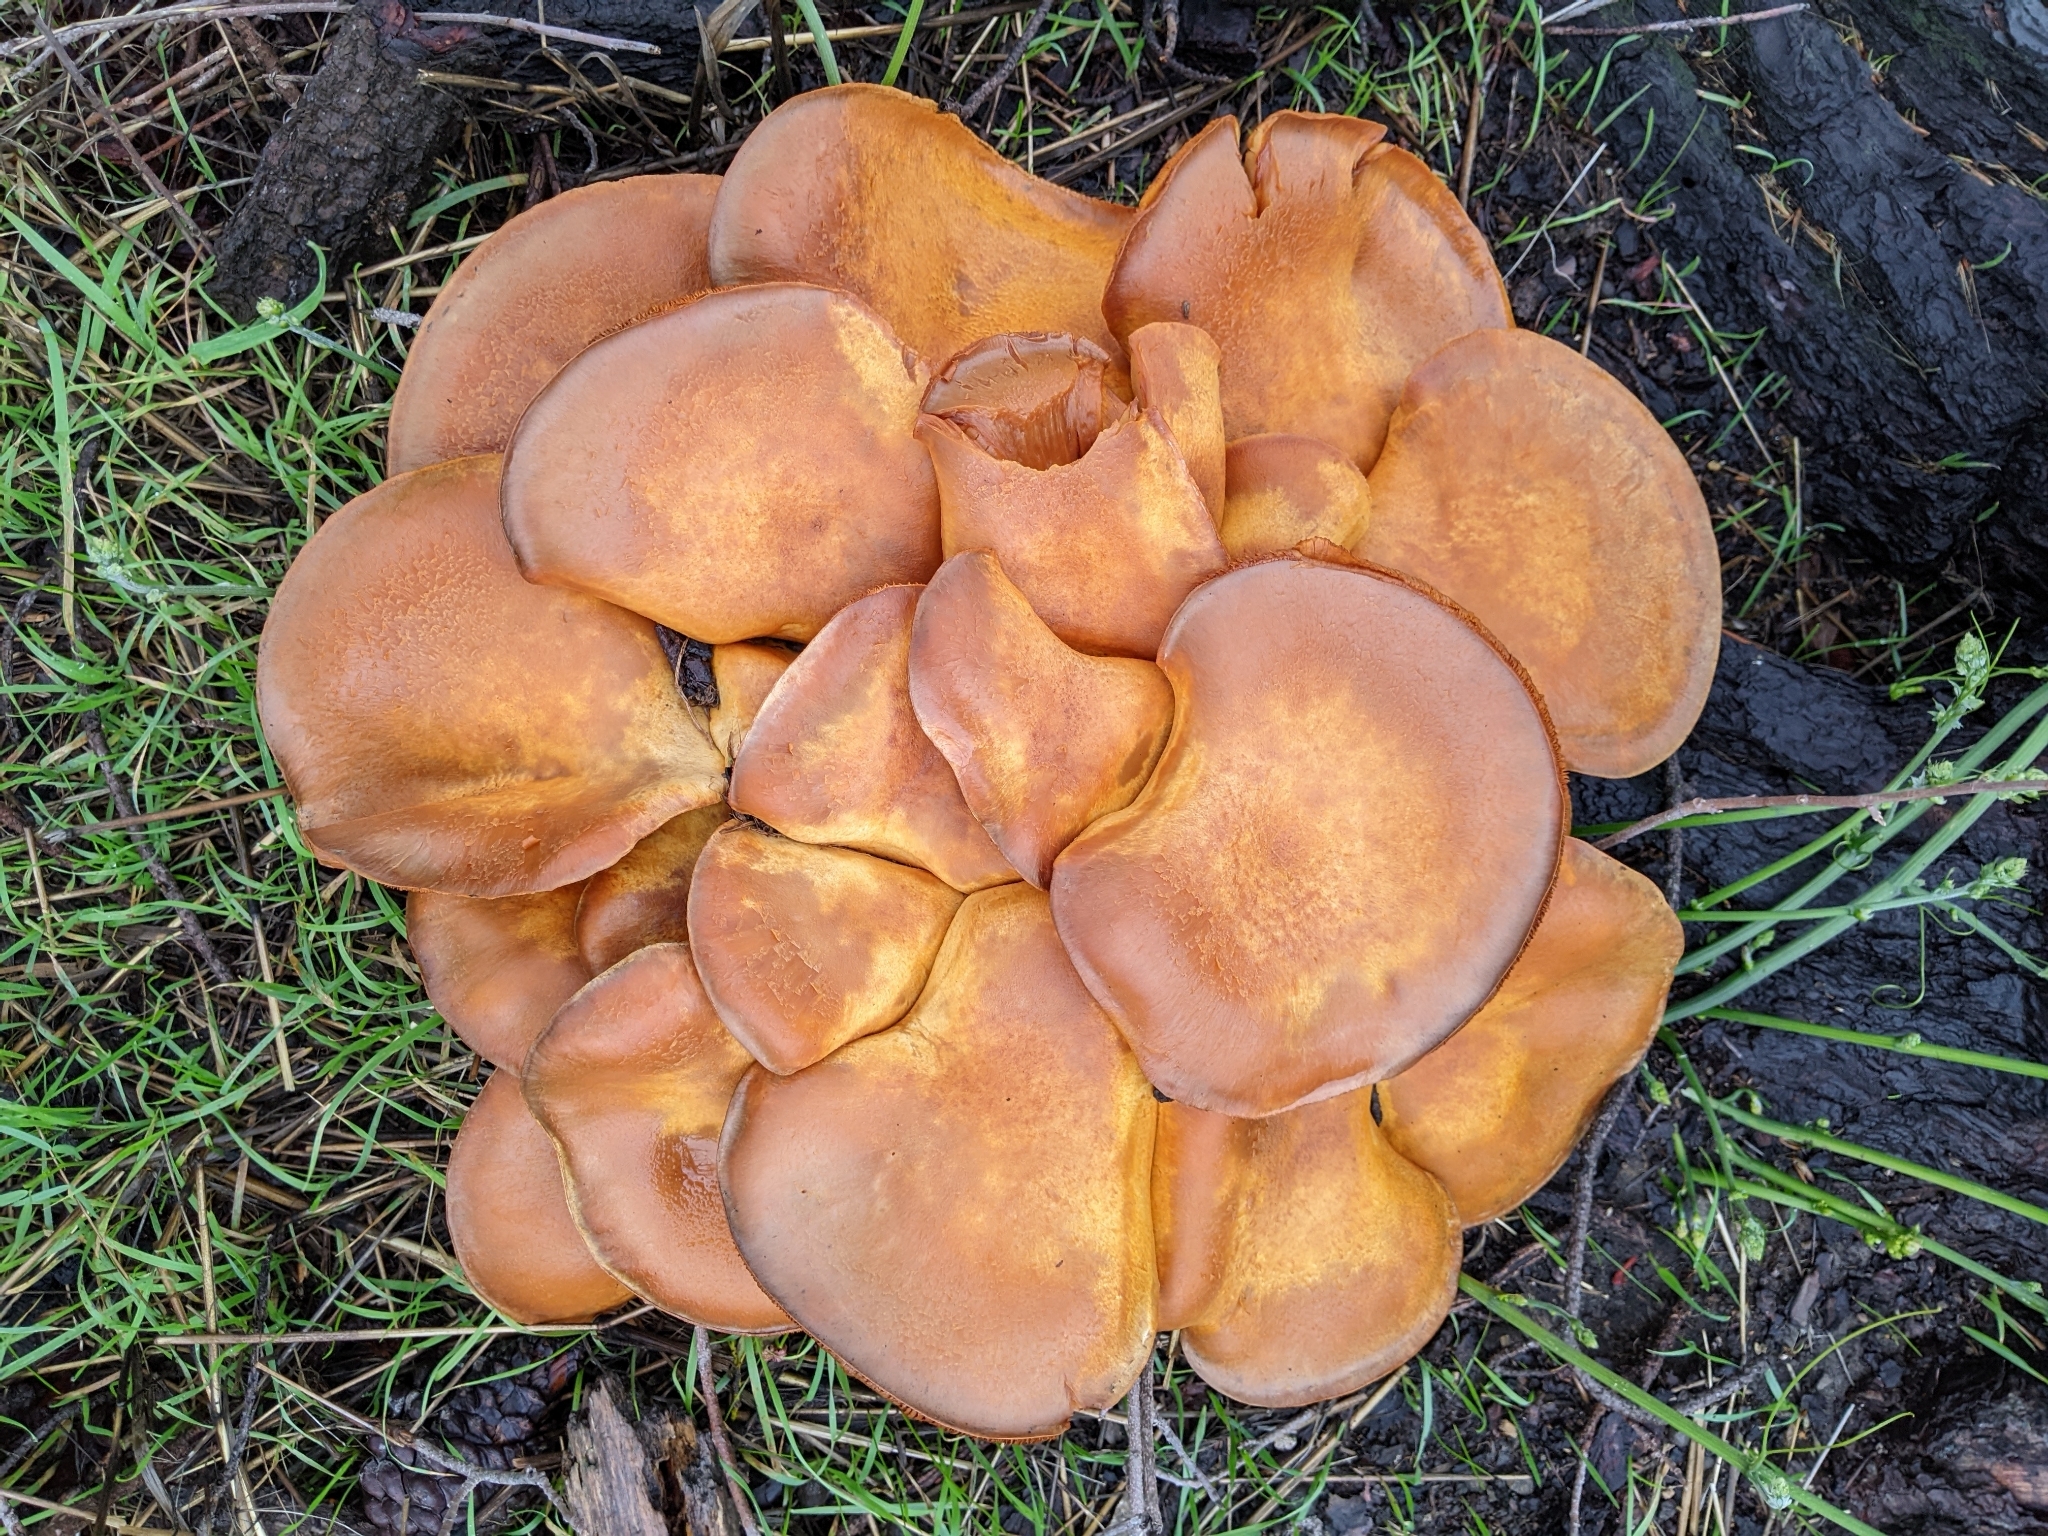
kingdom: Fungi
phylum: Basidiomycota
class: Agaricomycetes
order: Agaricales
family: Hymenogastraceae
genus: Gymnopilus
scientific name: Gymnopilus ventricosus
